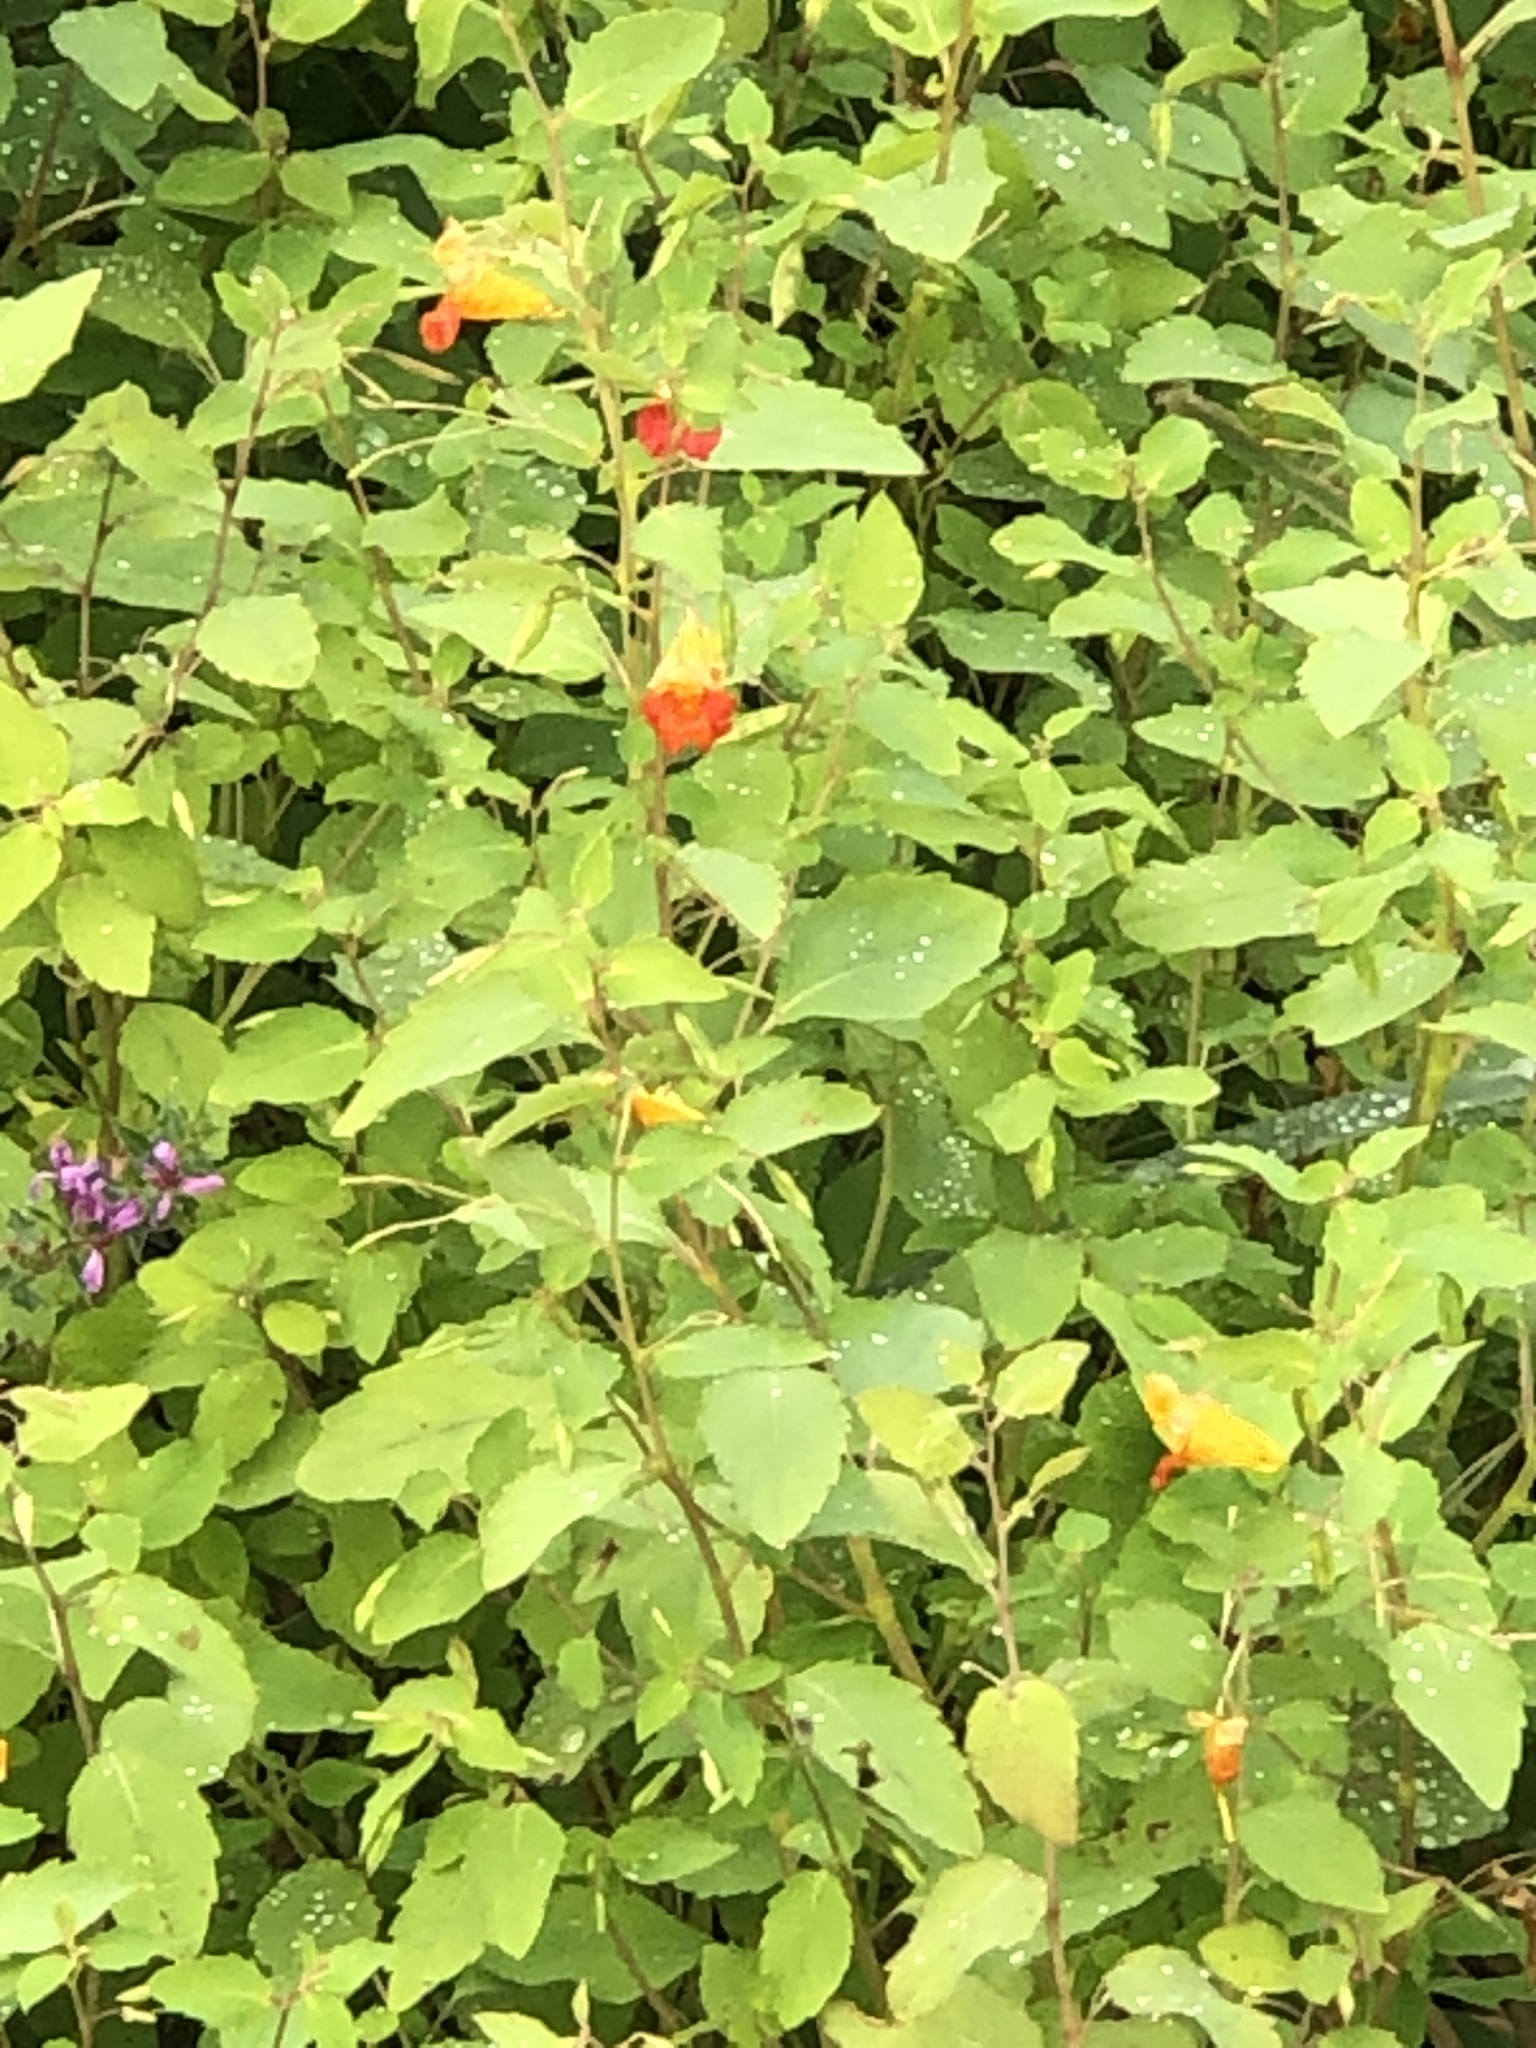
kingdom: Plantae
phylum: Tracheophyta
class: Magnoliopsida
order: Ericales
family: Balsaminaceae
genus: Impatiens
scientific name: Impatiens capensis
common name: Orange balsam
